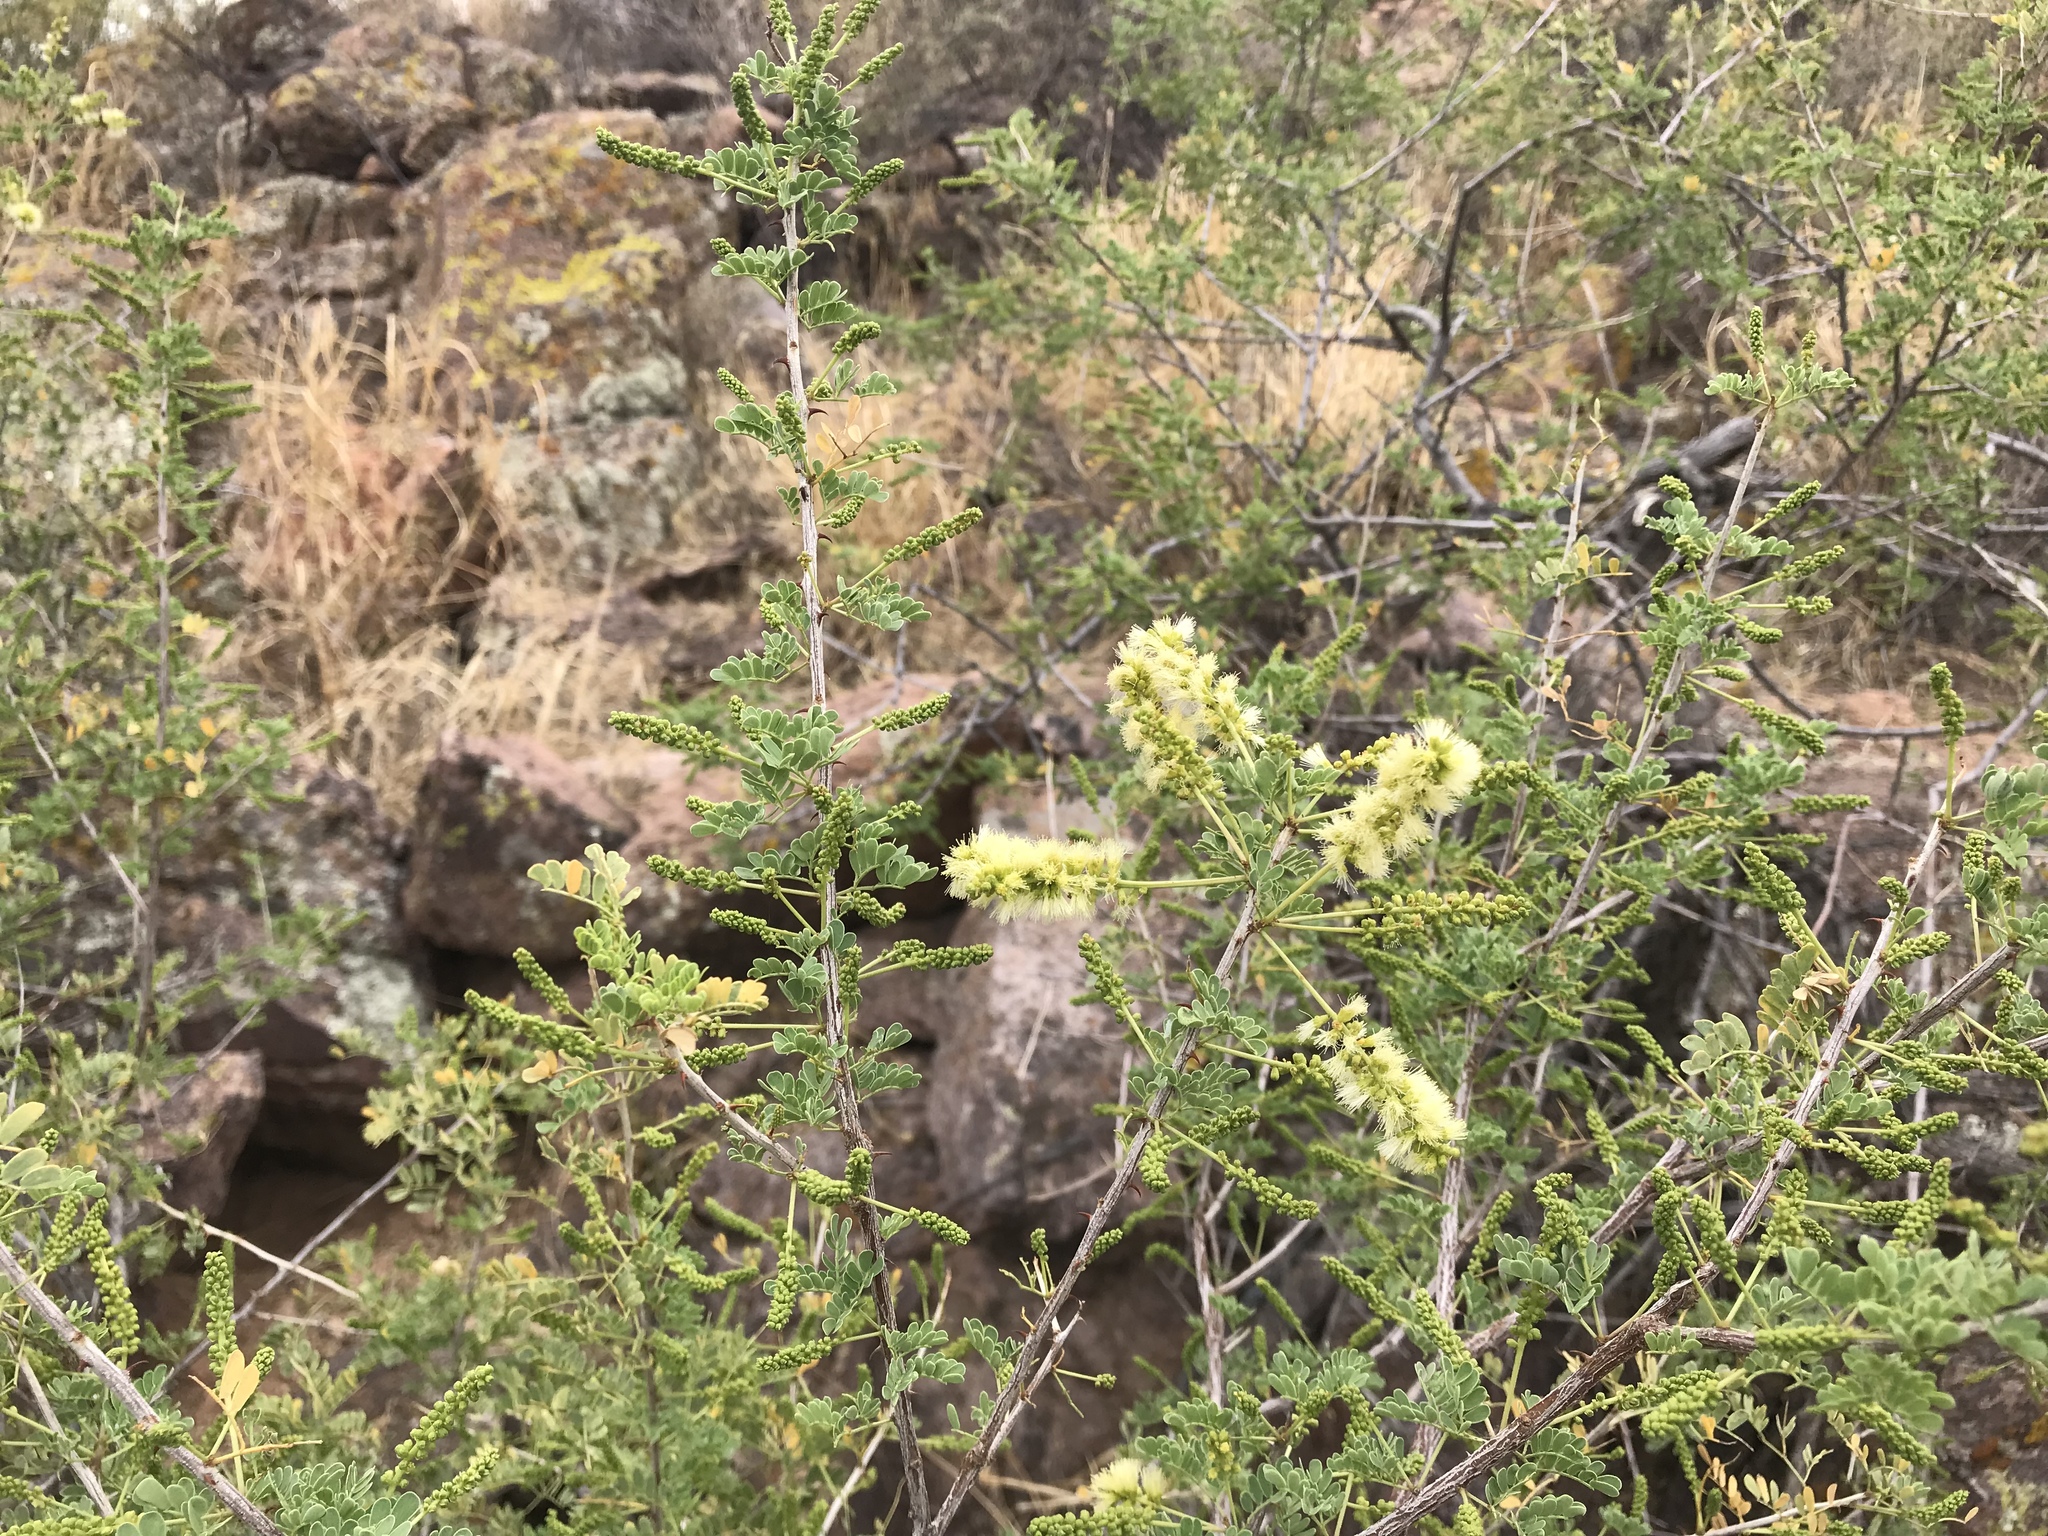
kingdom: Plantae
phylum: Tracheophyta
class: Magnoliopsida
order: Fabales
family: Fabaceae
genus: Senegalia
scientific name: Senegalia greggii
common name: Texas-mimosa
